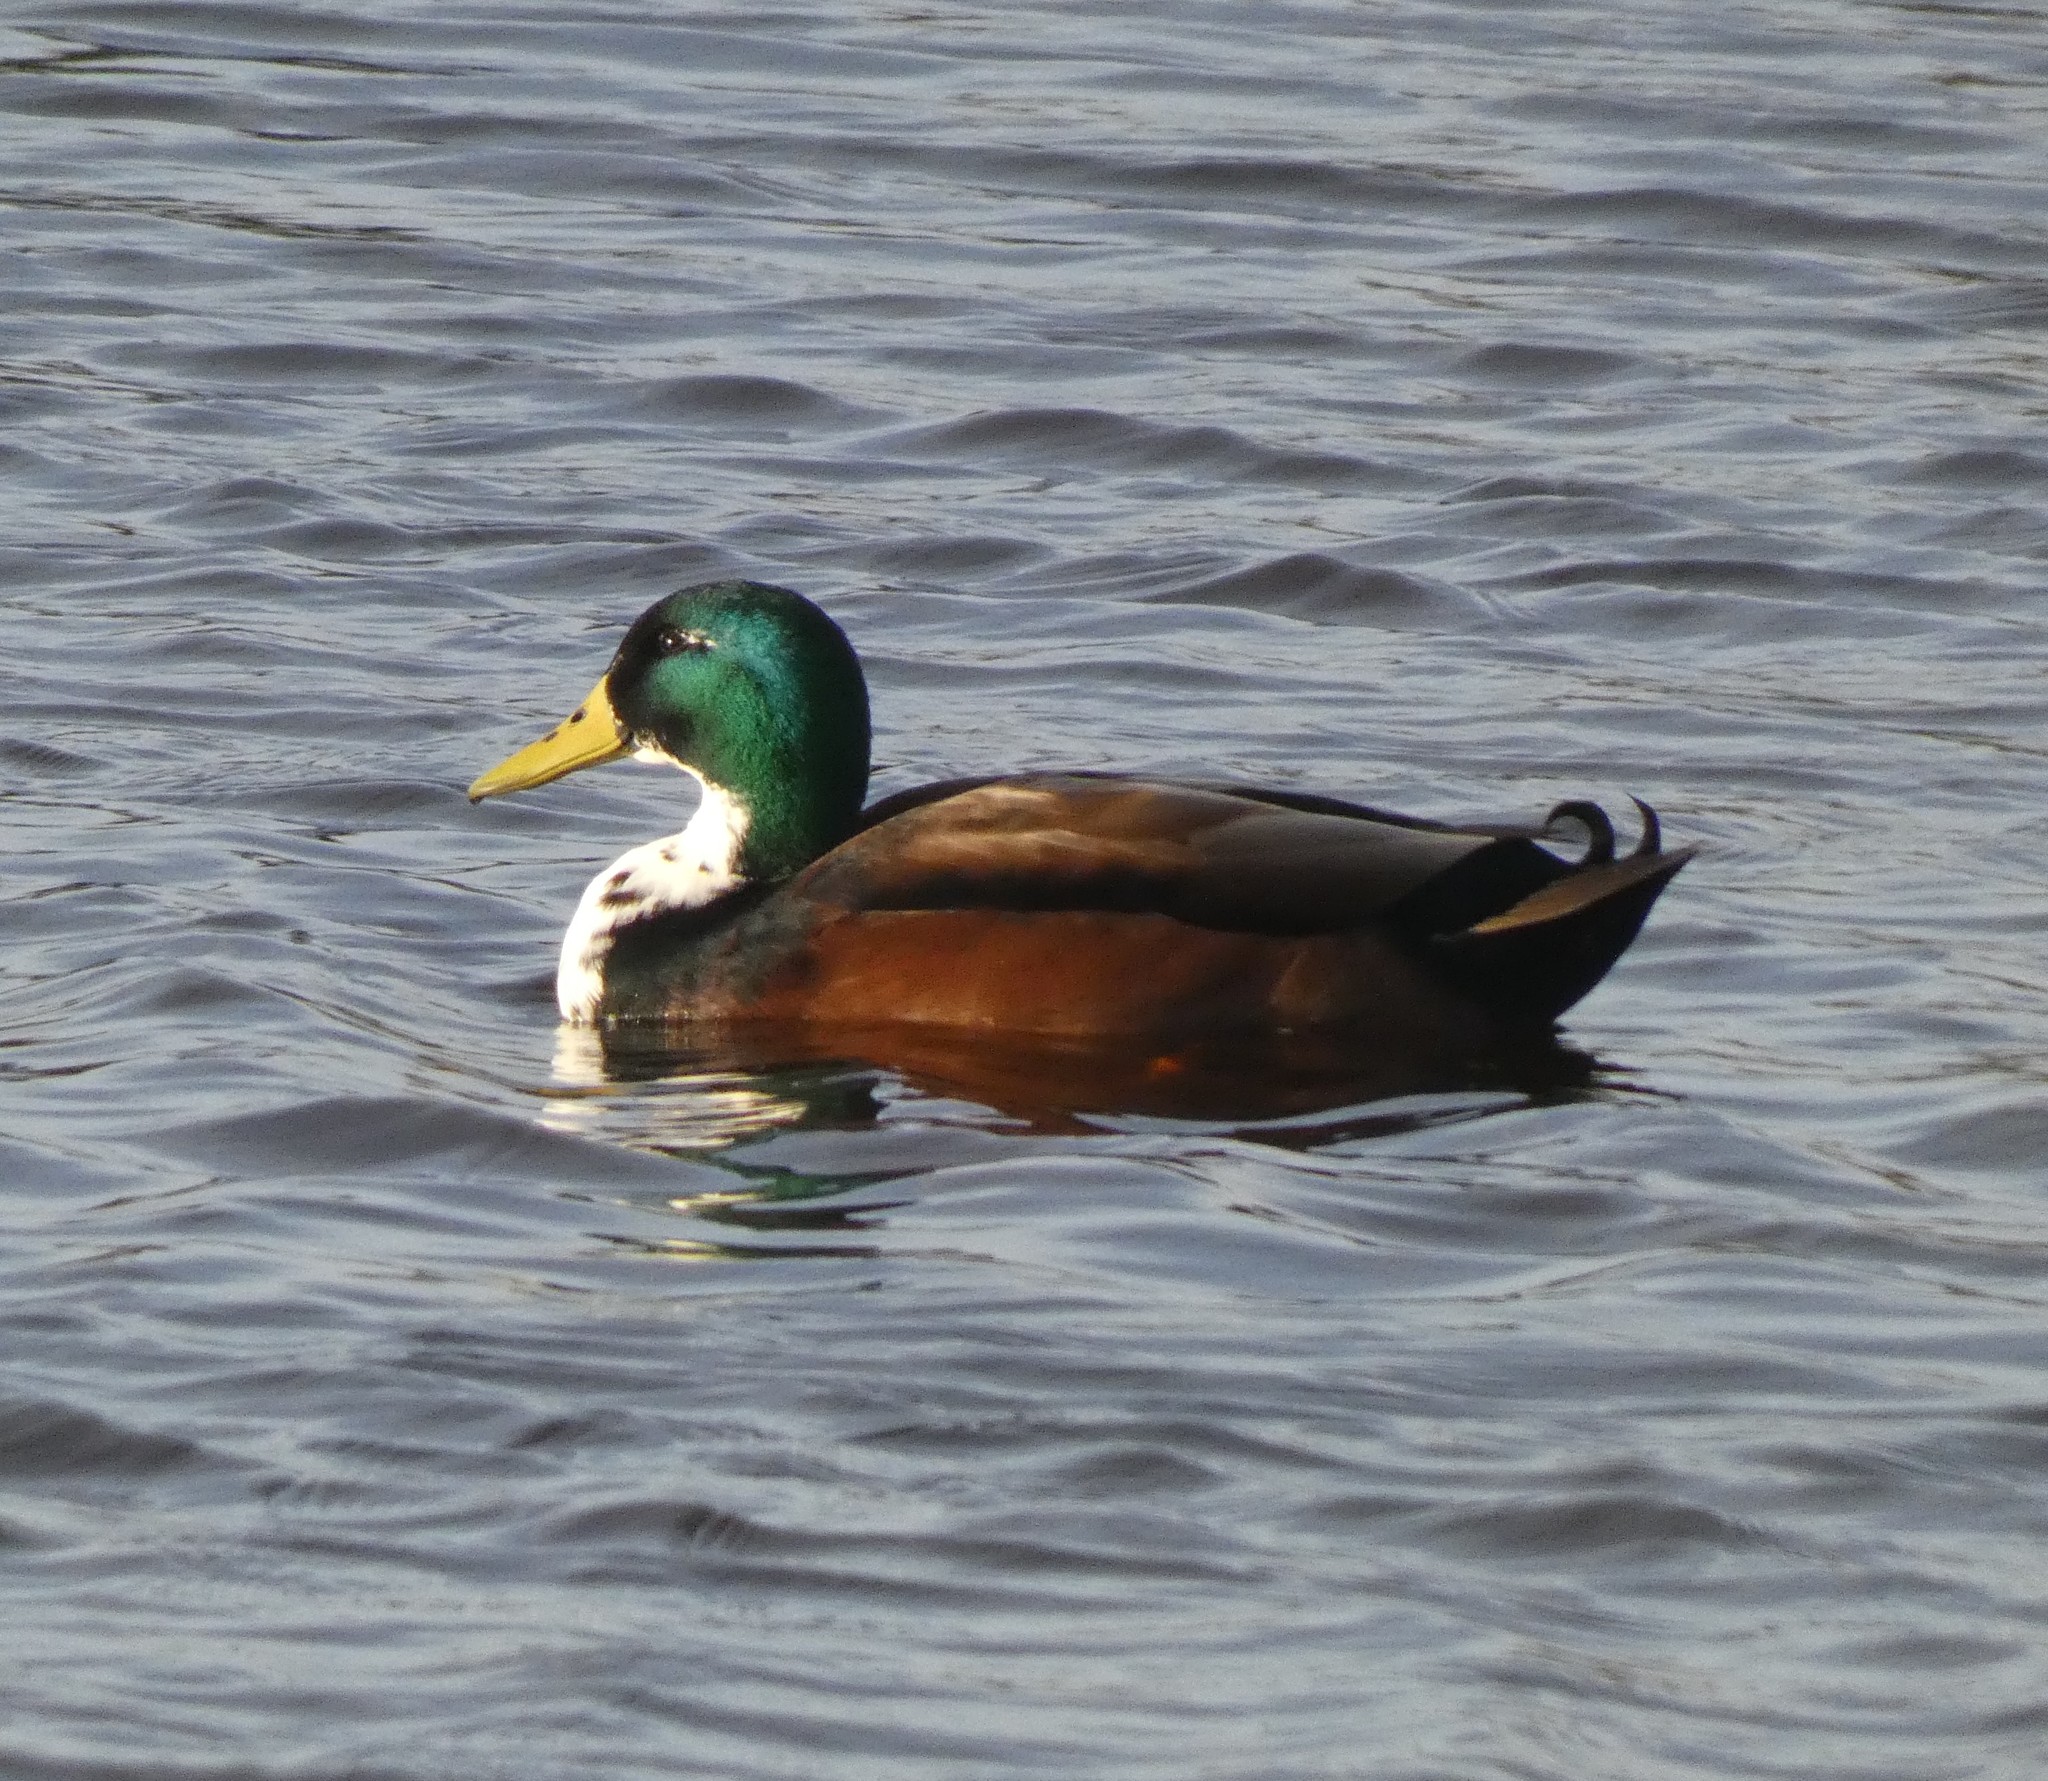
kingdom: Animalia
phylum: Chordata
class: Aves
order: Anseriformes
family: Anatidae
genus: Anas
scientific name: Anas platyrhynchos
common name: Mallard
